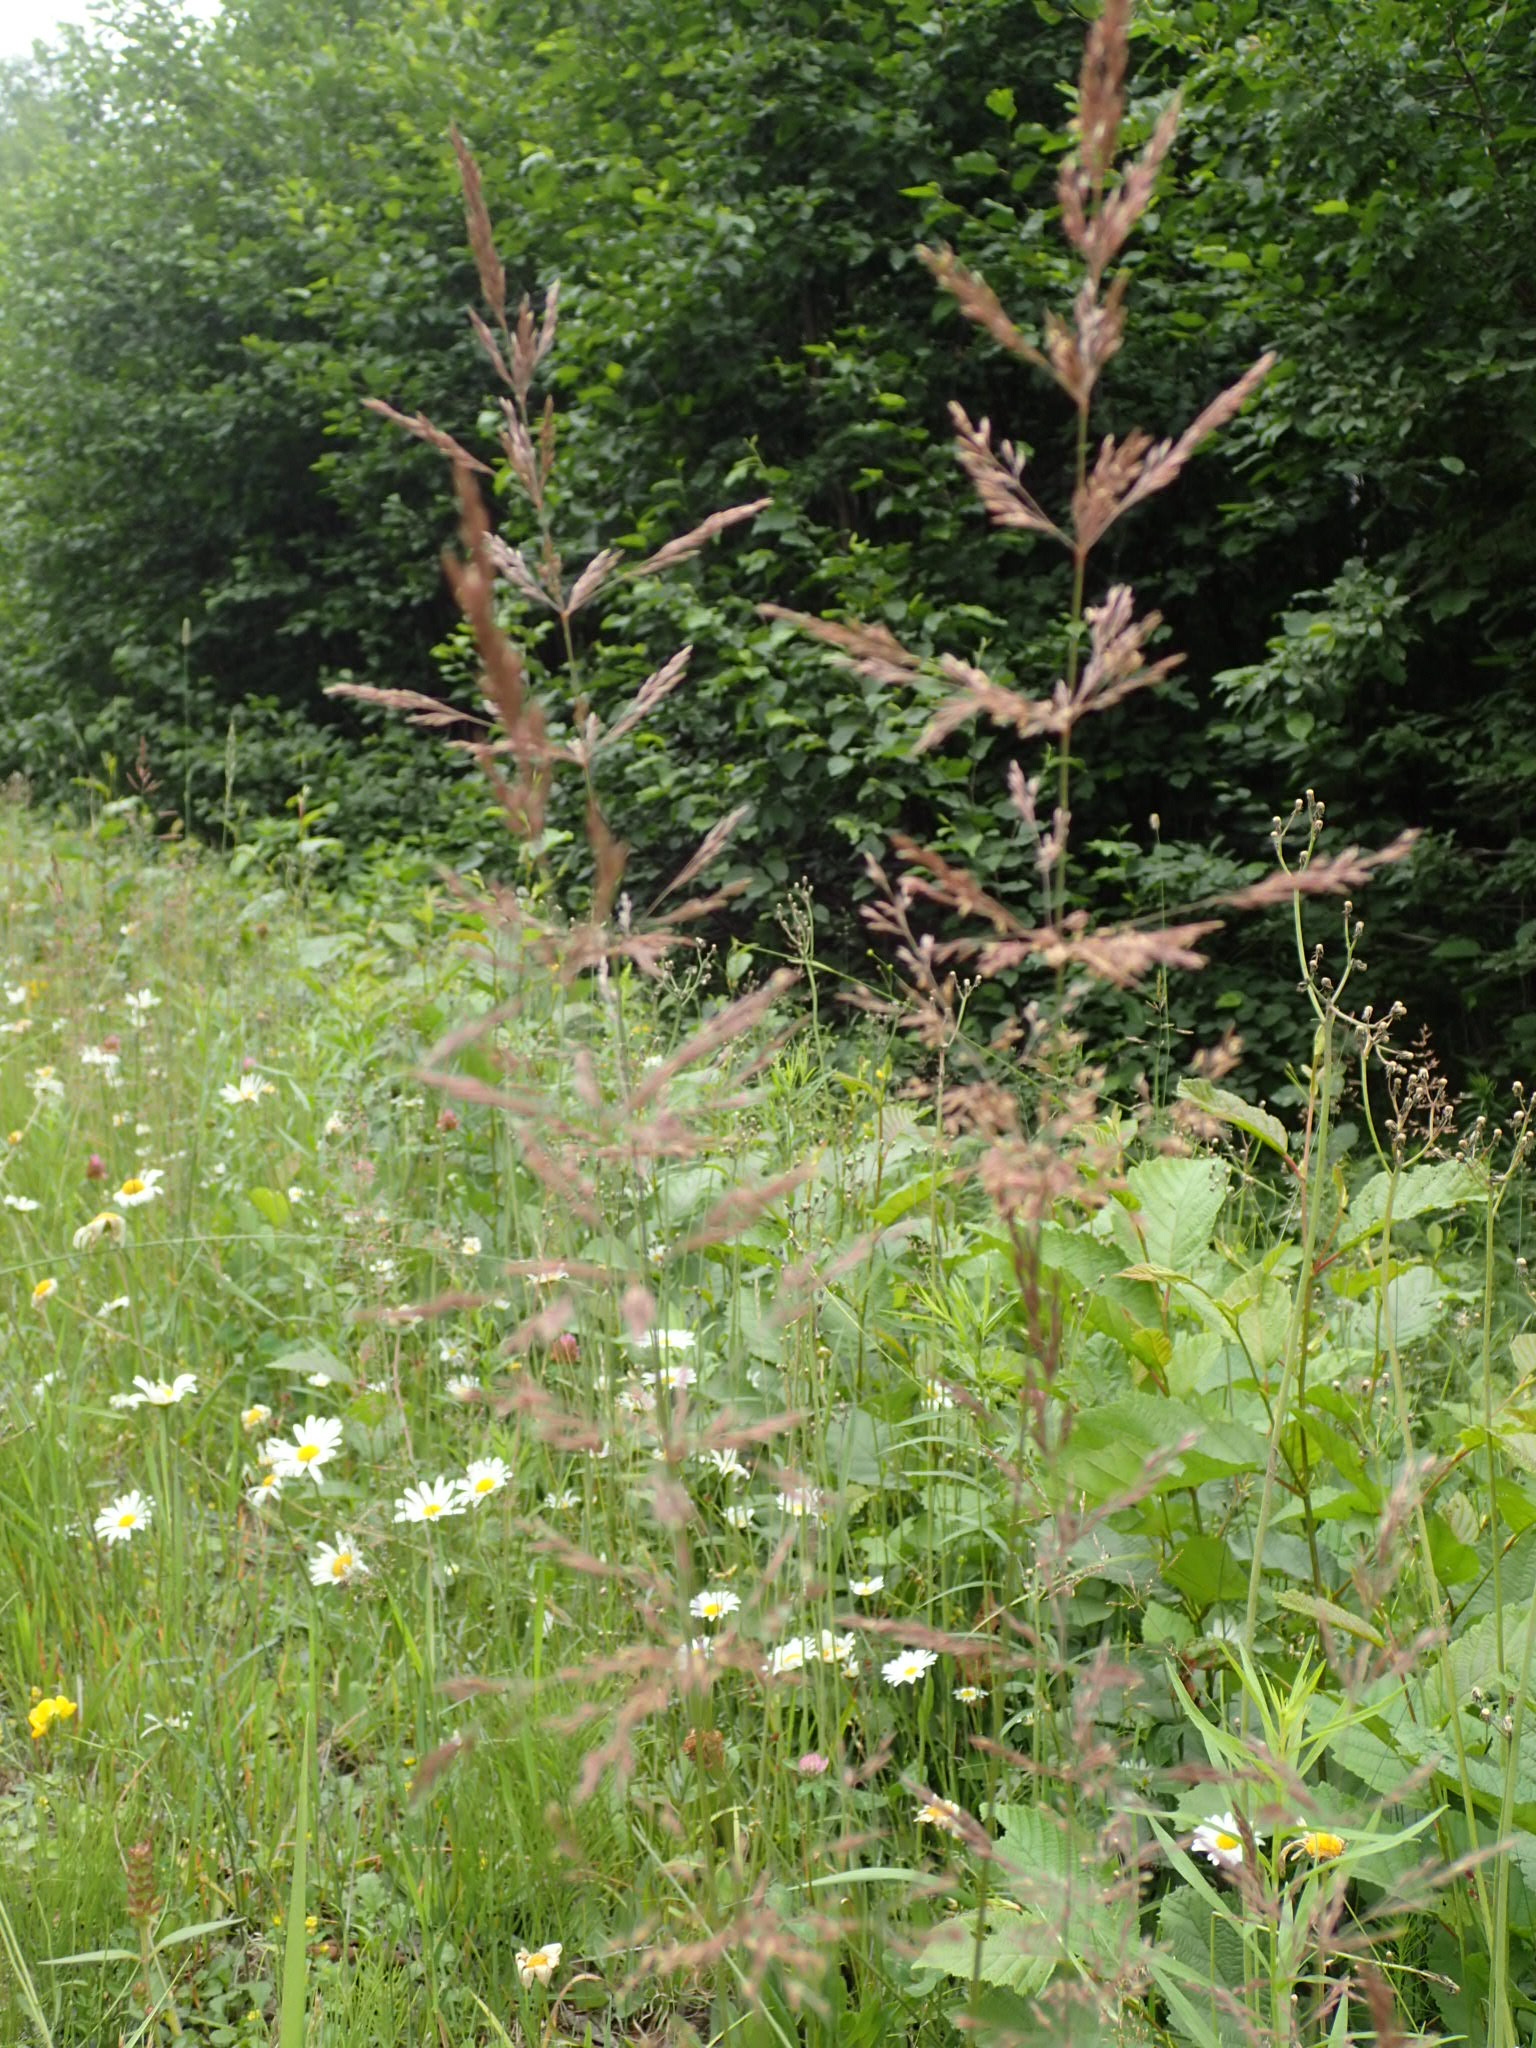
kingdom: Plantae
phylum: Tracheophyta
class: Liliopsida
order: Poales
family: Poaceae
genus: Agrostis
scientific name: Agrostis gigantea
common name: Black bent
